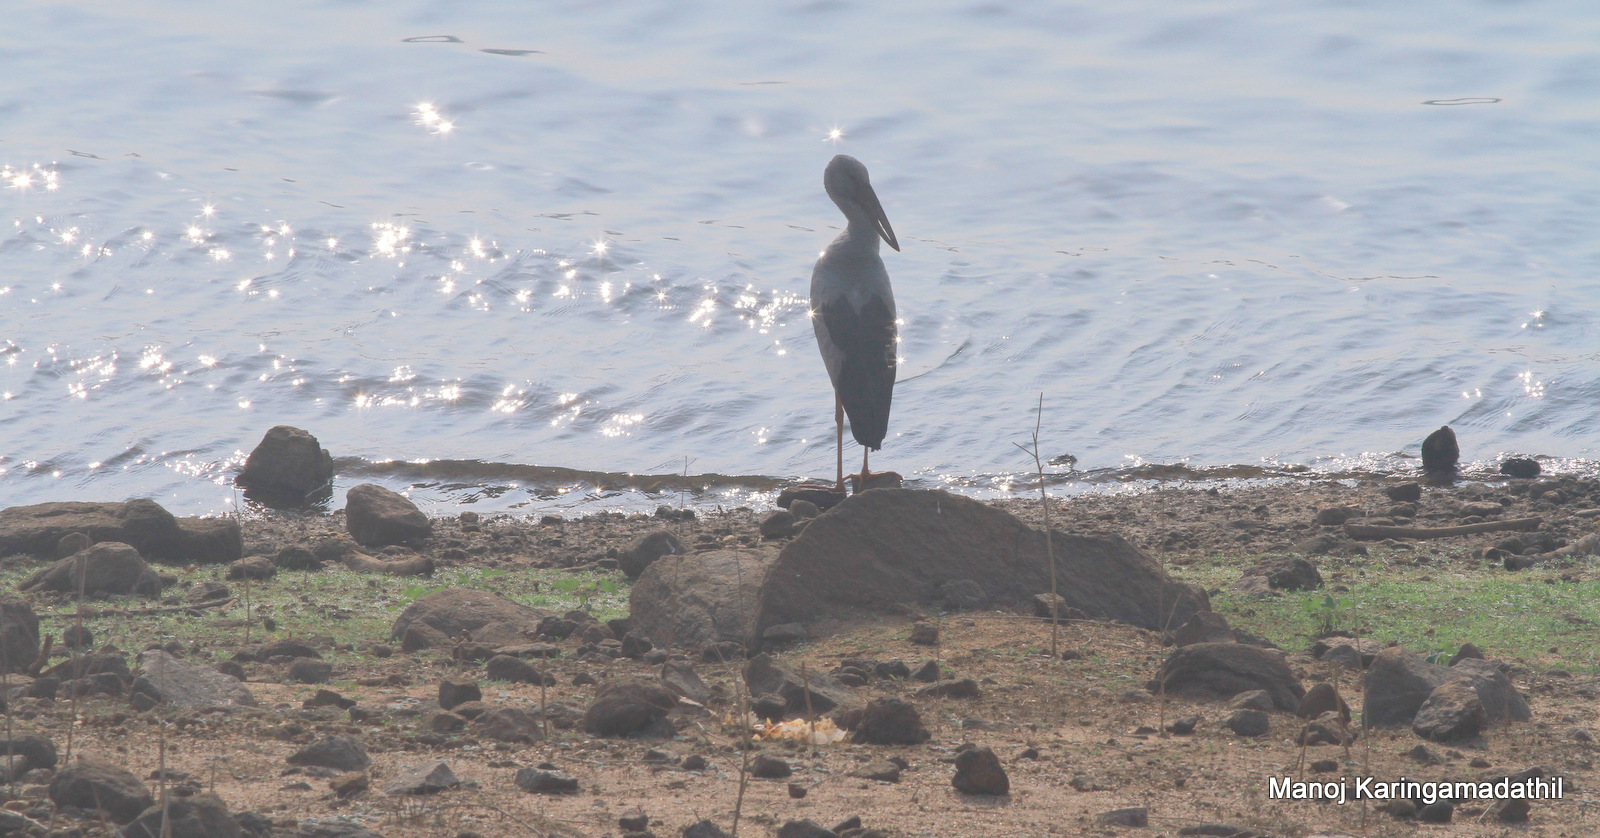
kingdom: Animalia
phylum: Chordata
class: Aves
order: Ciconiiformes
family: Ciconiidae
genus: Anastomus
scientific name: Anastomus oscitans
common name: Asian openbill
